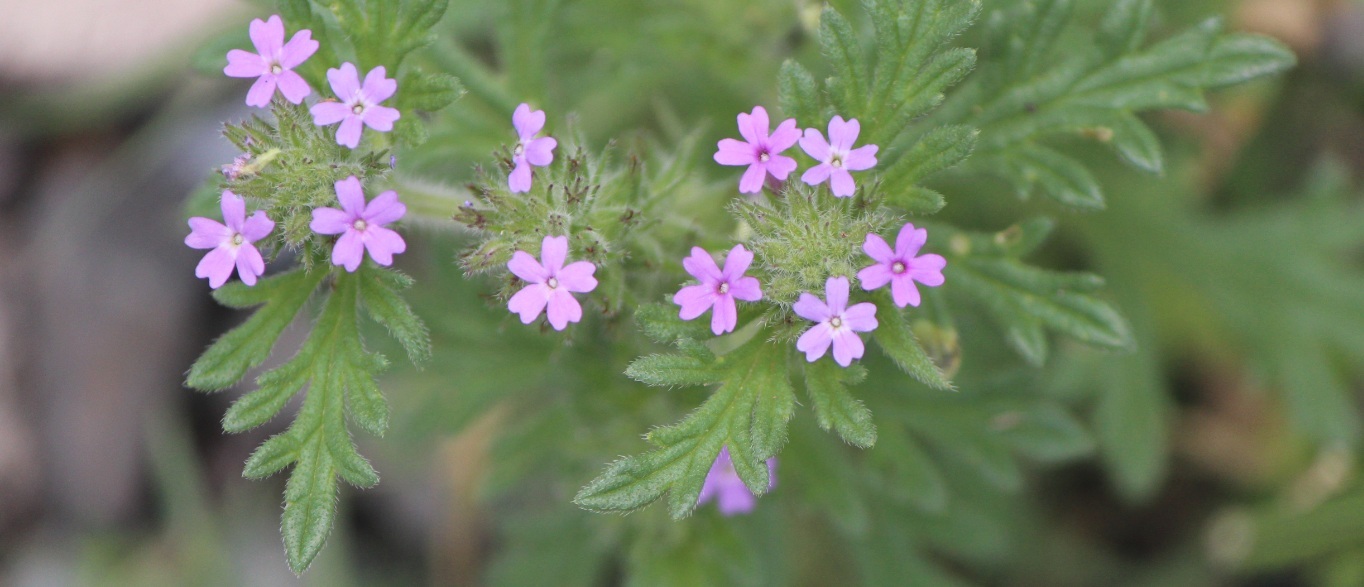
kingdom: Plantae
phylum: Tracheophyta
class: Magnoliopsida
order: Lamiales
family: Verbenaceae
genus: Verbena
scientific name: Verbena bipinnatifida
